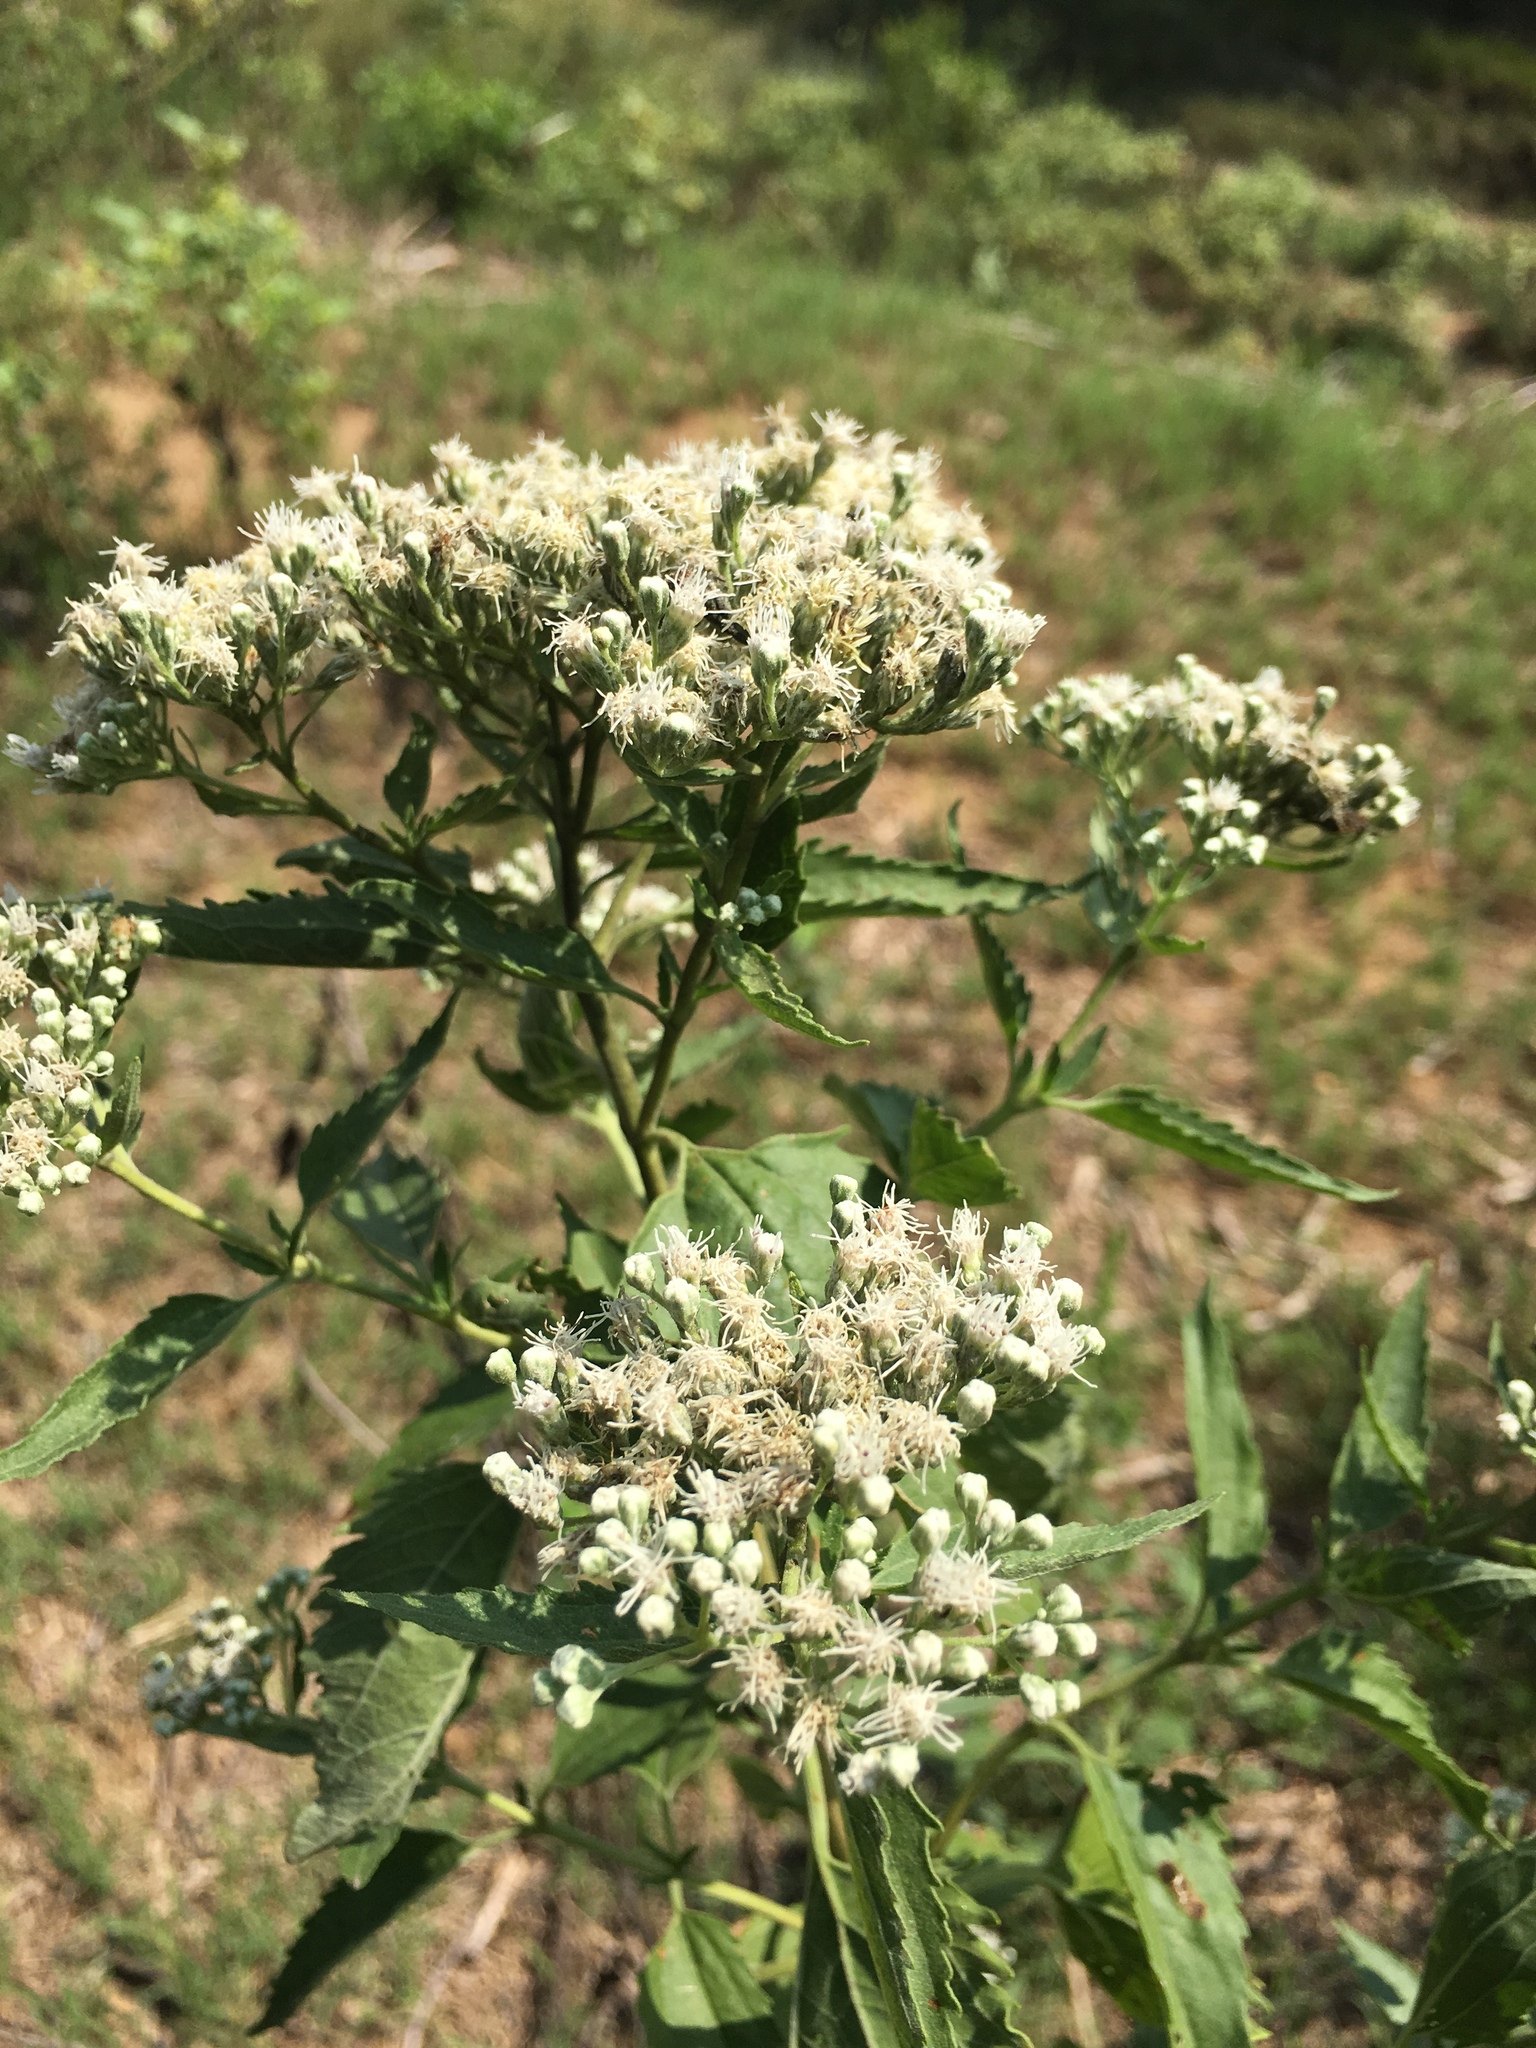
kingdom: Plantae
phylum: Tracheophyta
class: Magnoliopsida
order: Asterales
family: Asteraceae
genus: Eupatorium
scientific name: Eupatorium serotinum
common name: Late boneset
